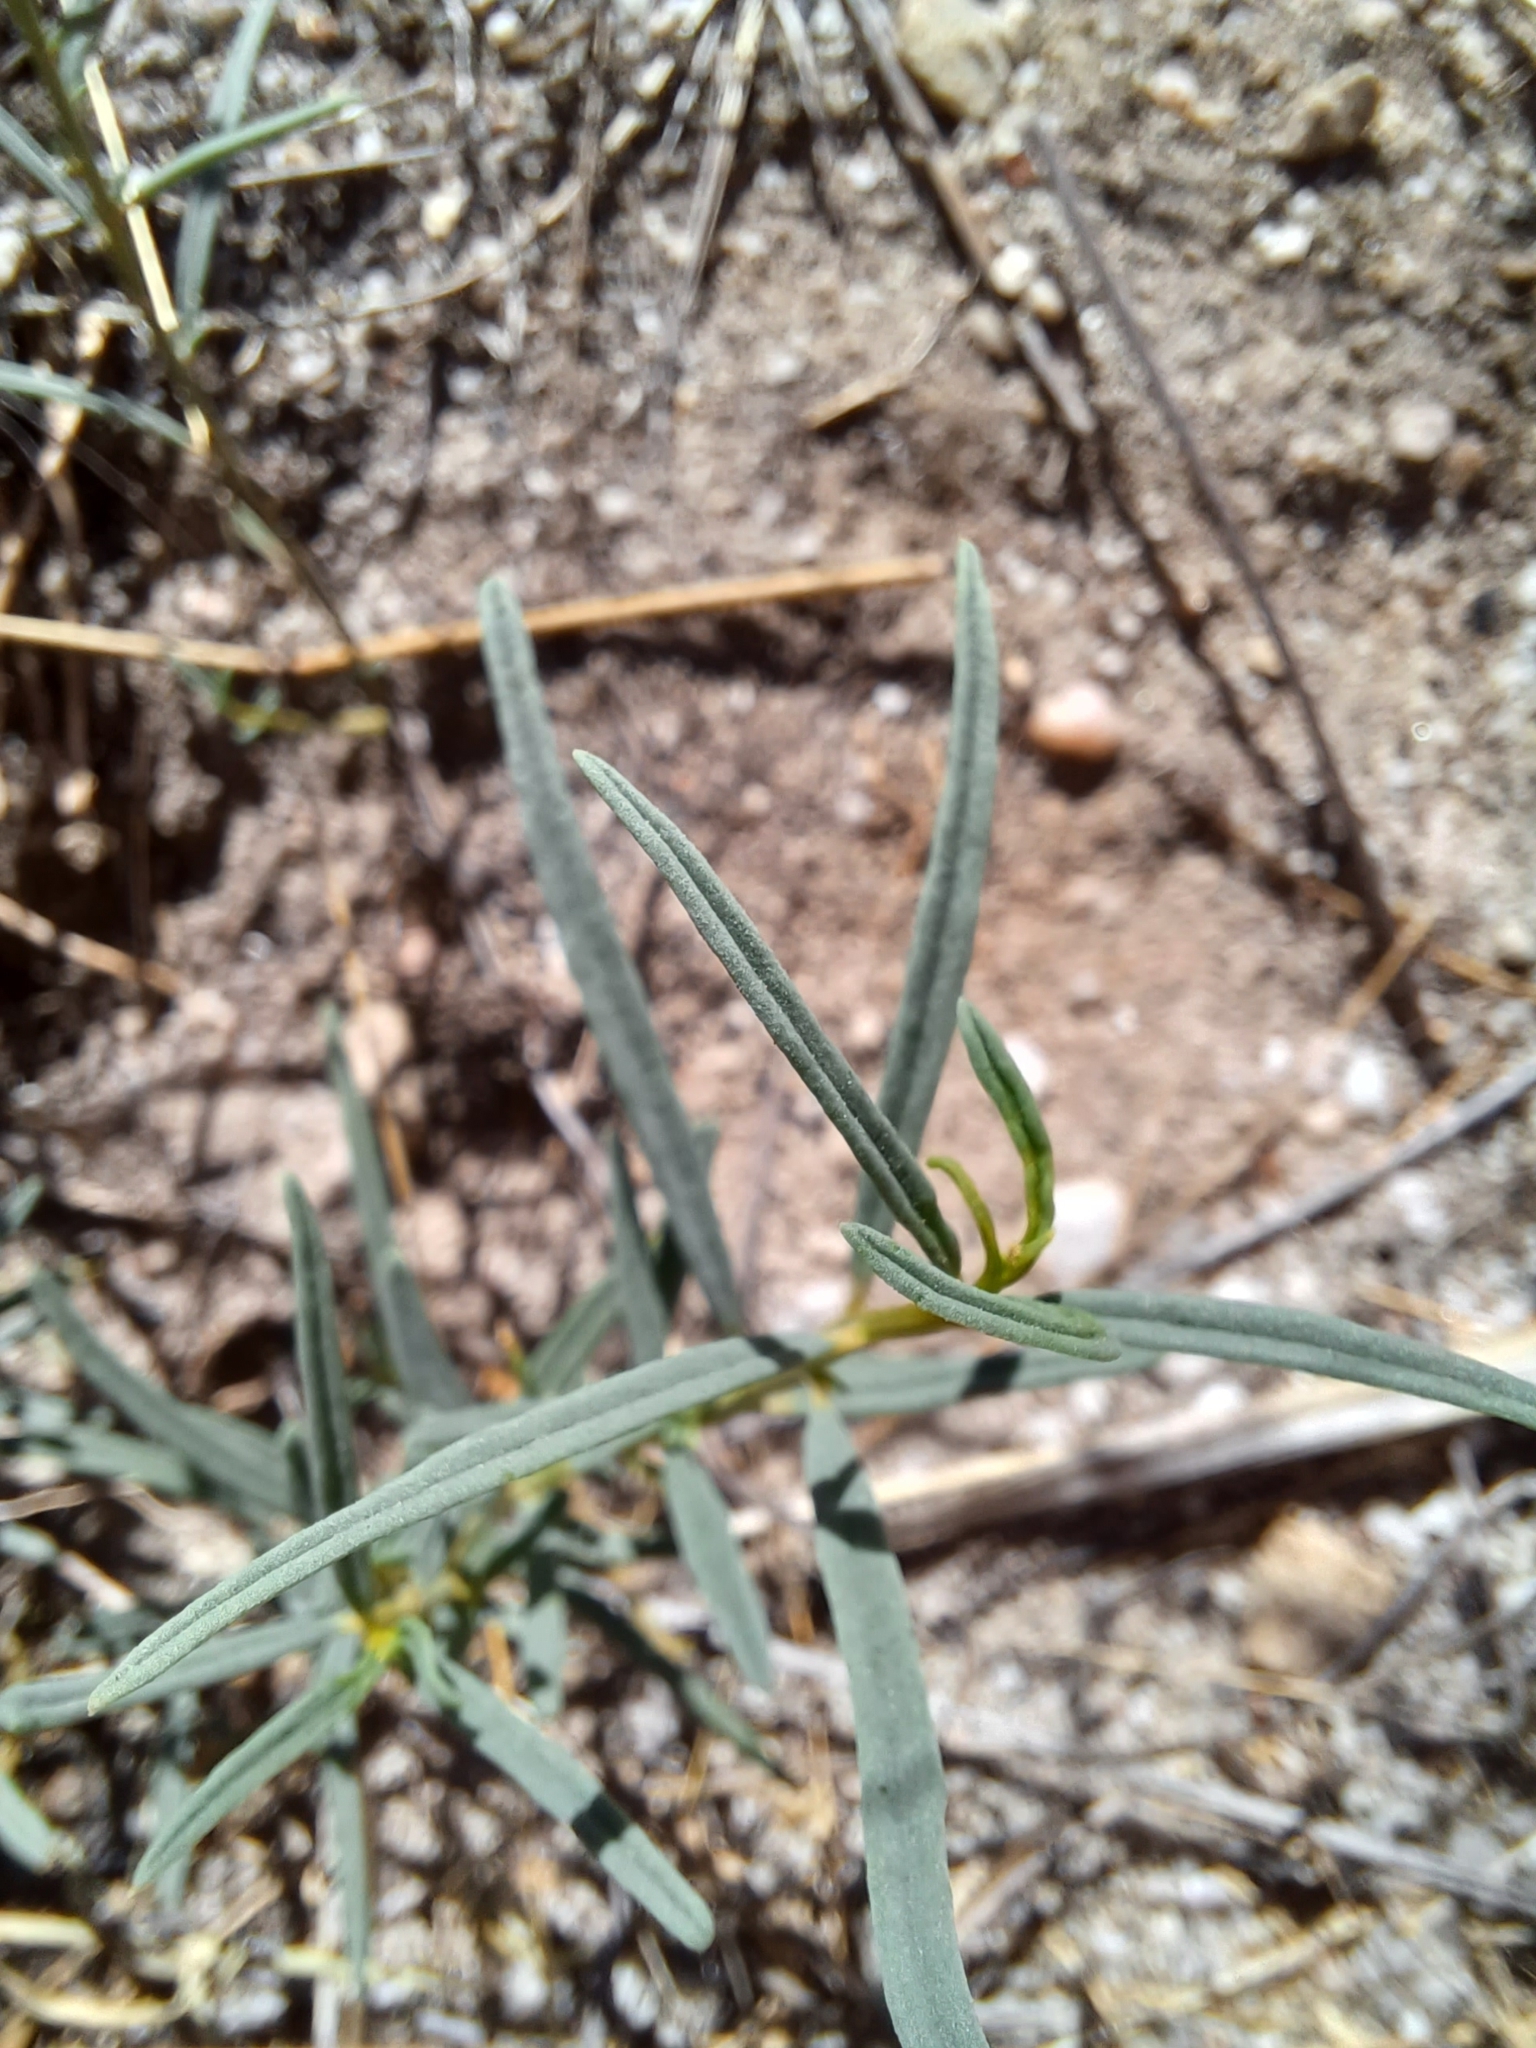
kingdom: Plantae
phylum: Tracheophyta
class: Magnoliopsida
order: Caryophyllales
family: Limeaceae
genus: Limeum
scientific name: Limeum africanum
